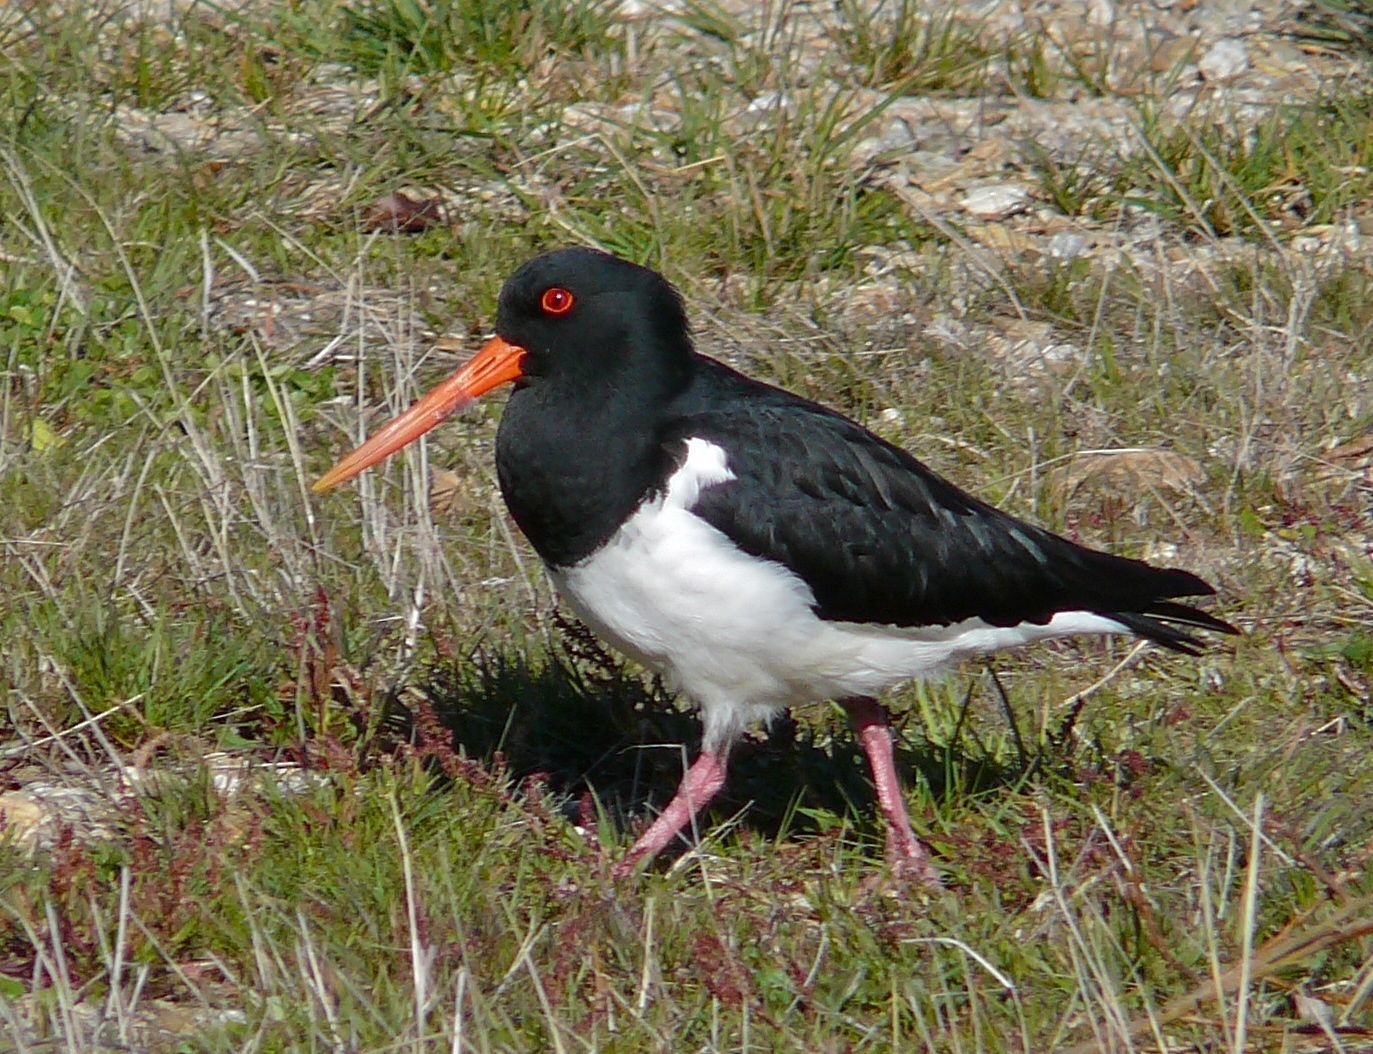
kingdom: Animalia
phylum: Chordata
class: Aves
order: Charadriiformes
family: Haematopodidae
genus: Haematopus
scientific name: Haematopus finschi
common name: South island oystercatcher
